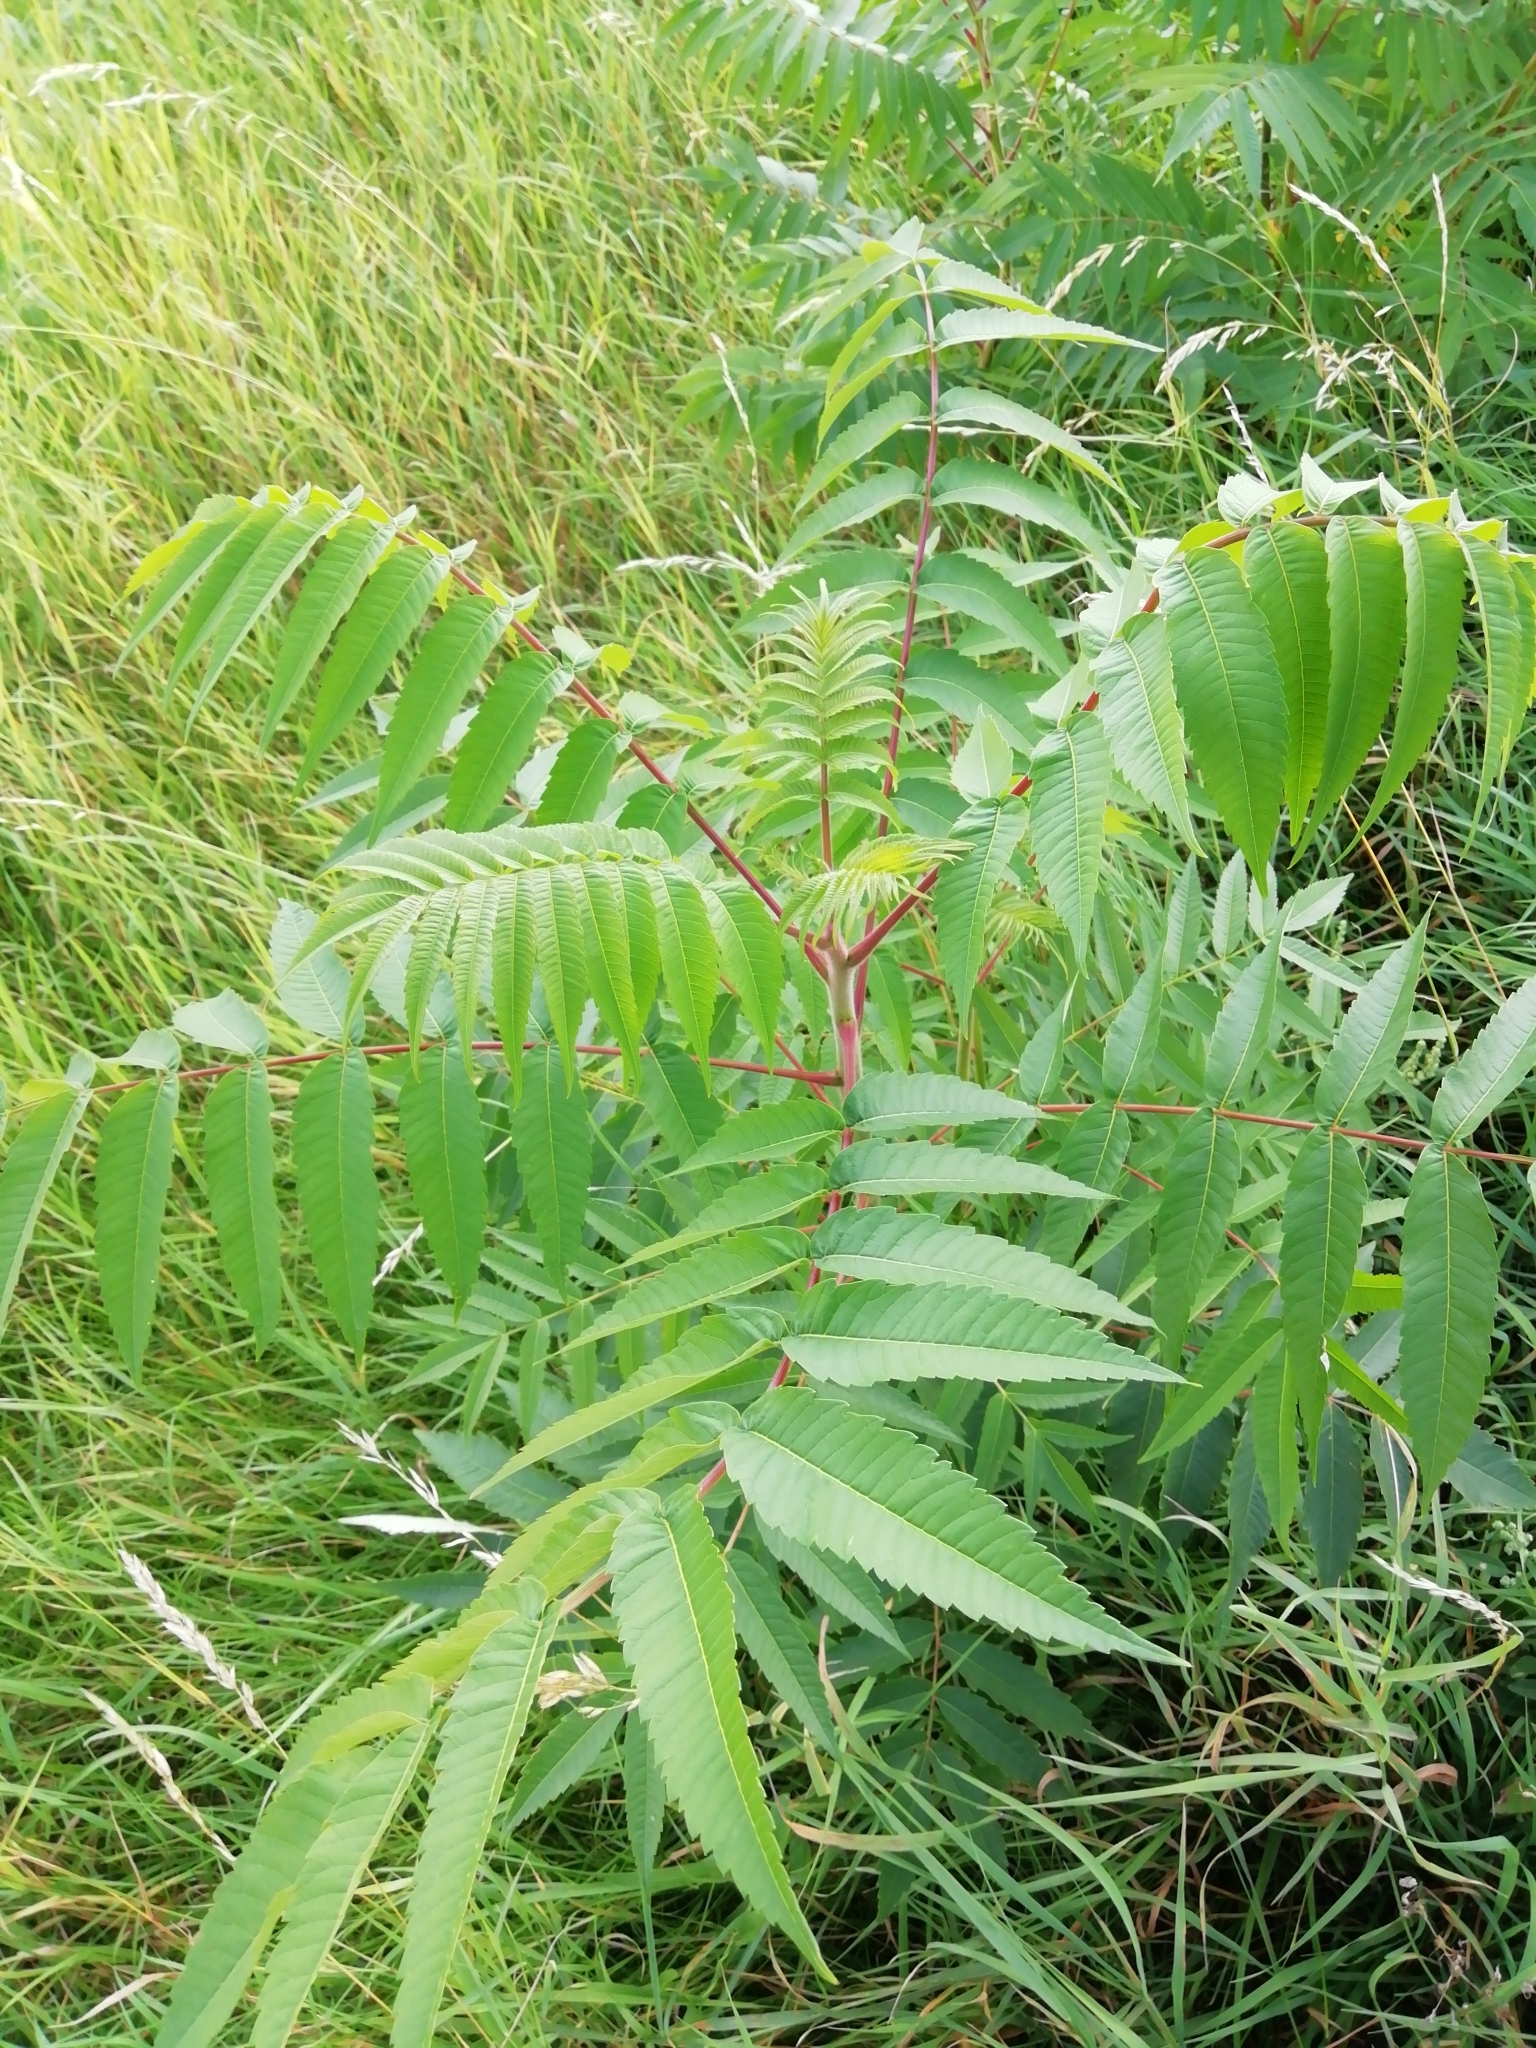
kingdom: Plantae
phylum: Tracheophyta
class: Magnoliopsida
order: Sapindales
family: Anacardiaceae
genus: Rhus
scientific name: Rhus typhina
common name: Staghorn sumac
